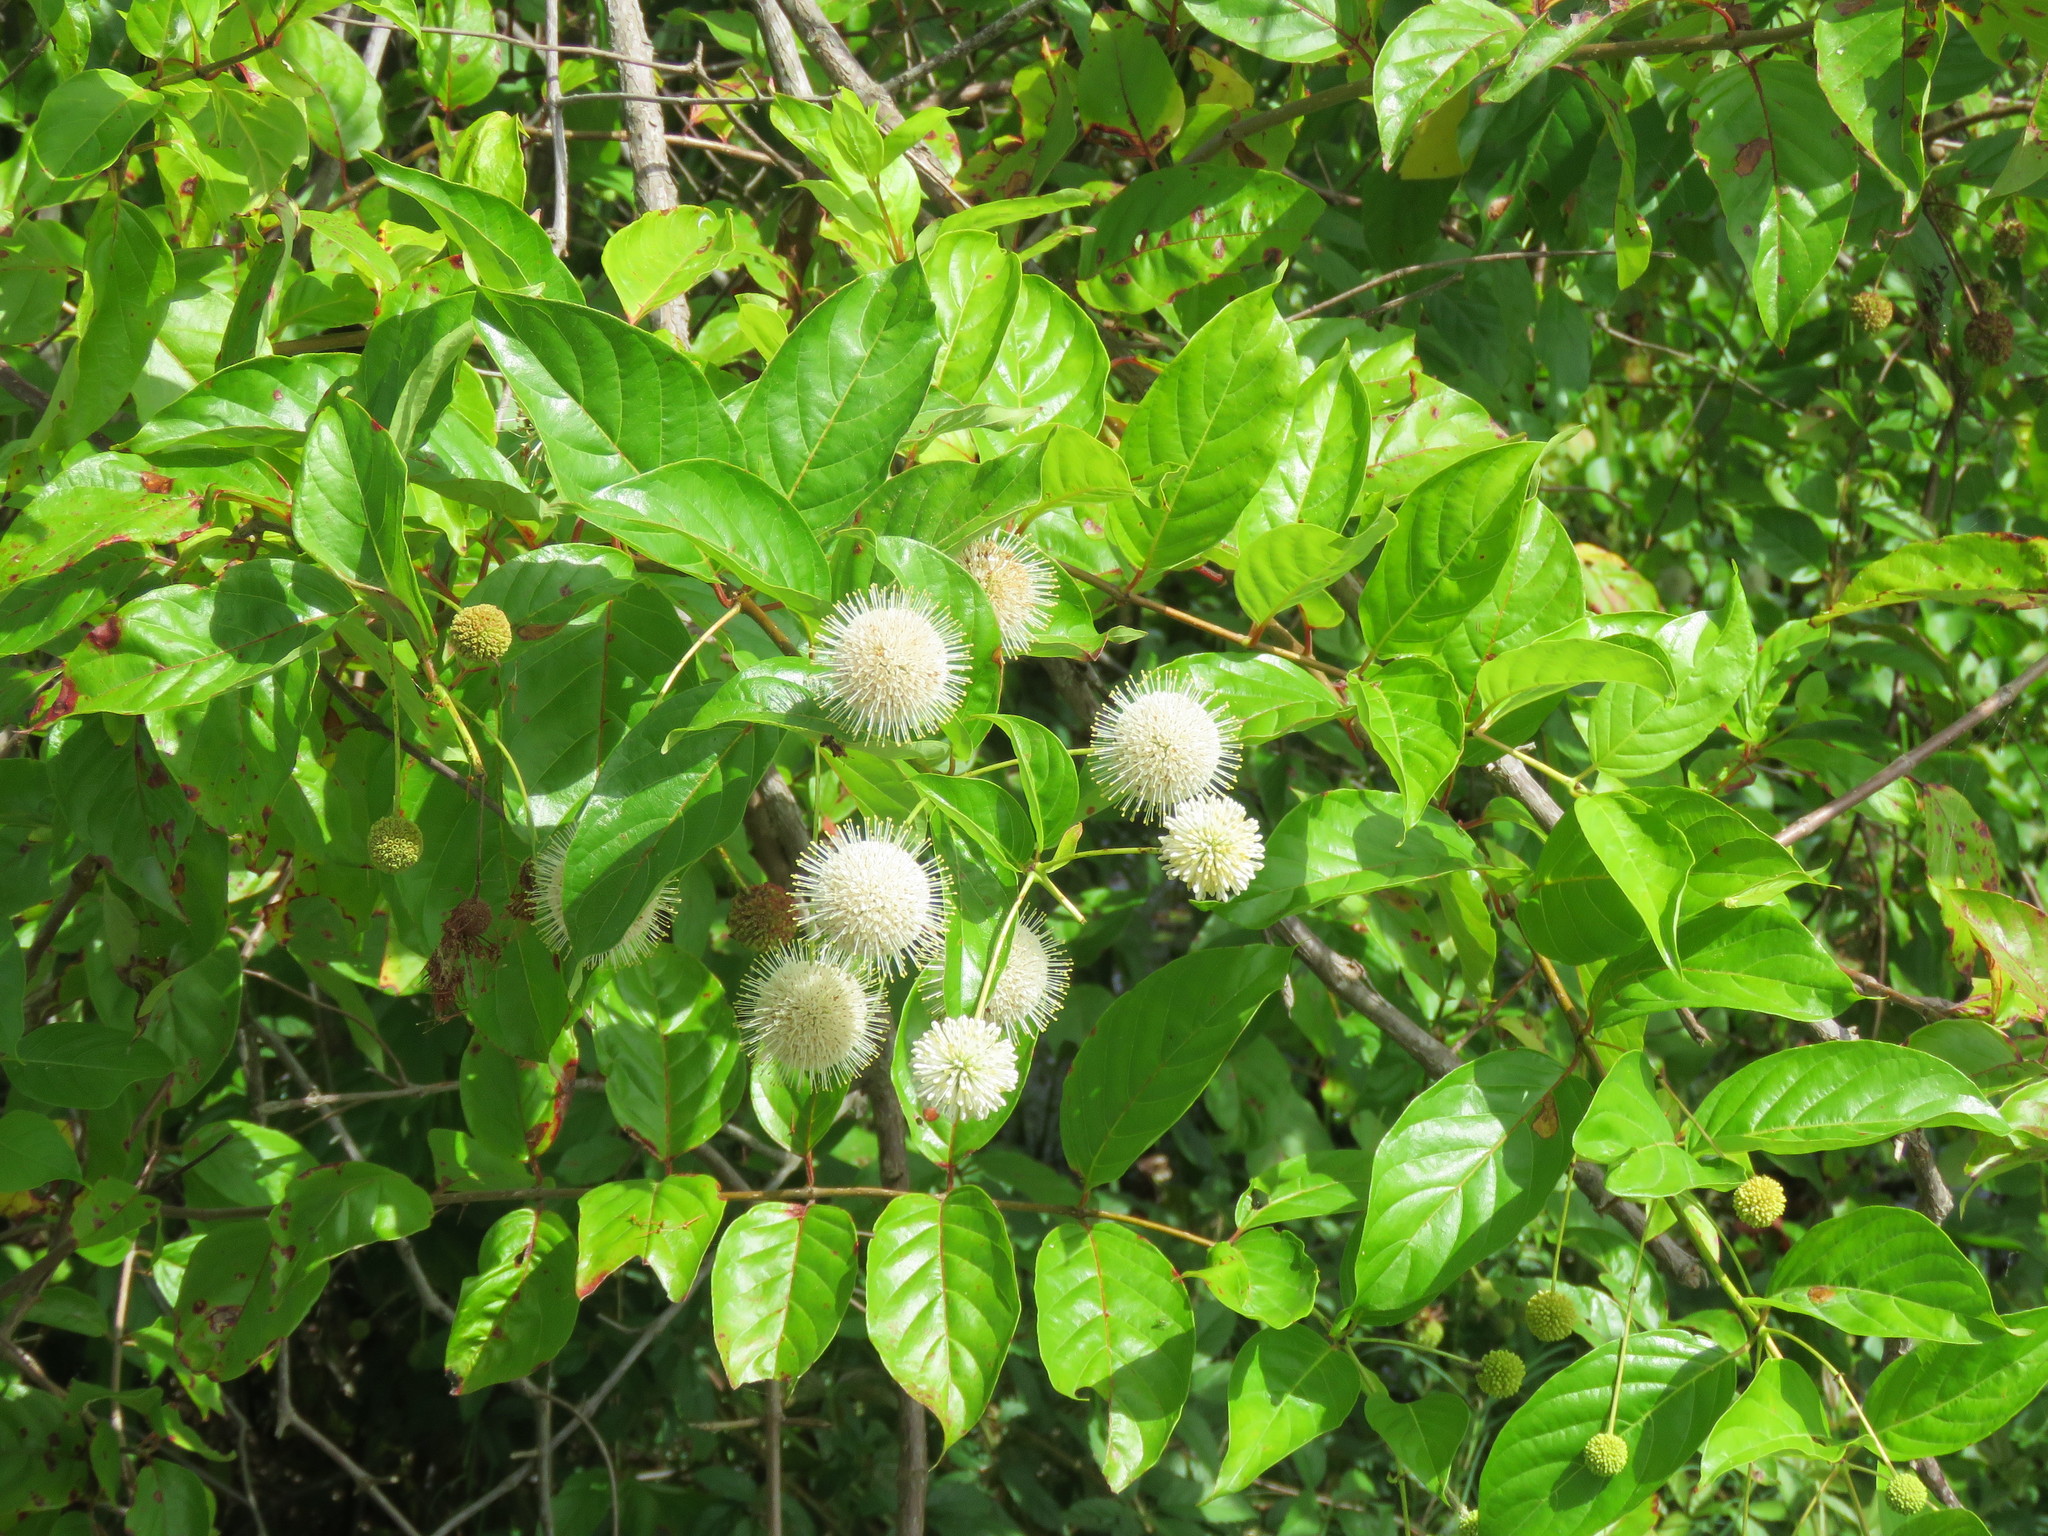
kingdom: Plantae
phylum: Tracheophyta
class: Magnoliopsida
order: Gentianales
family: Rubiaceae
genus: Cephalanthus
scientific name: Cephalanthus occidentalis
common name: Button-willow
